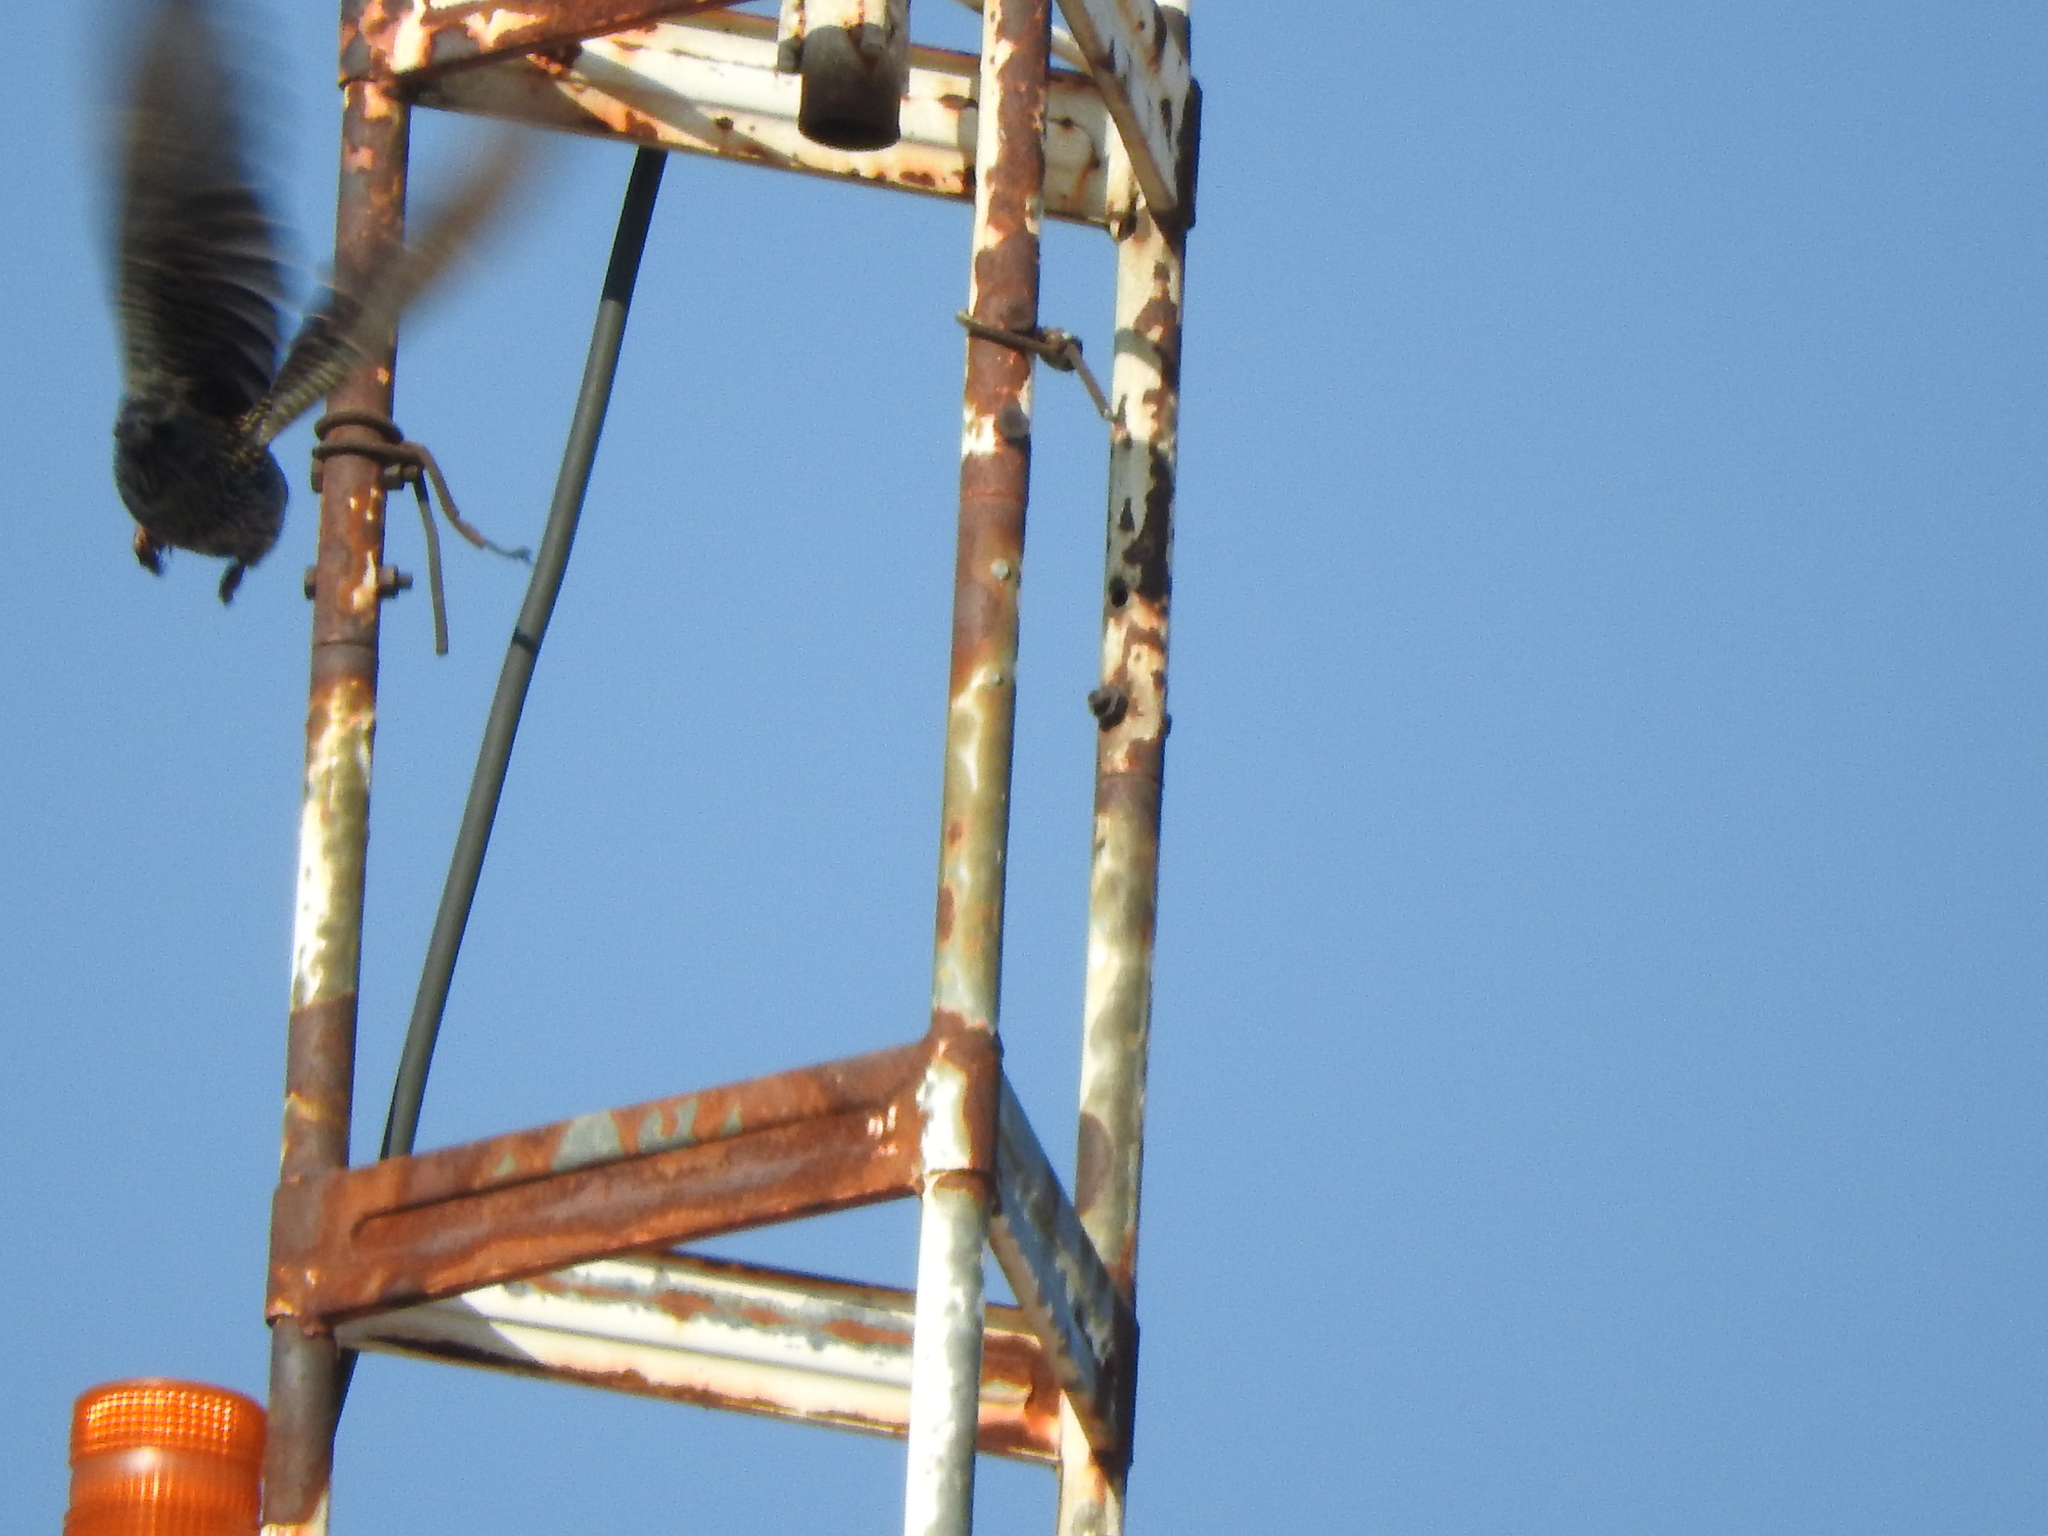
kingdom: Animalia
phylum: Chordata
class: Aves
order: Passeriformes
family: Sturnidae
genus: Sturnus
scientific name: Sturnus vulgaris
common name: Common starling
